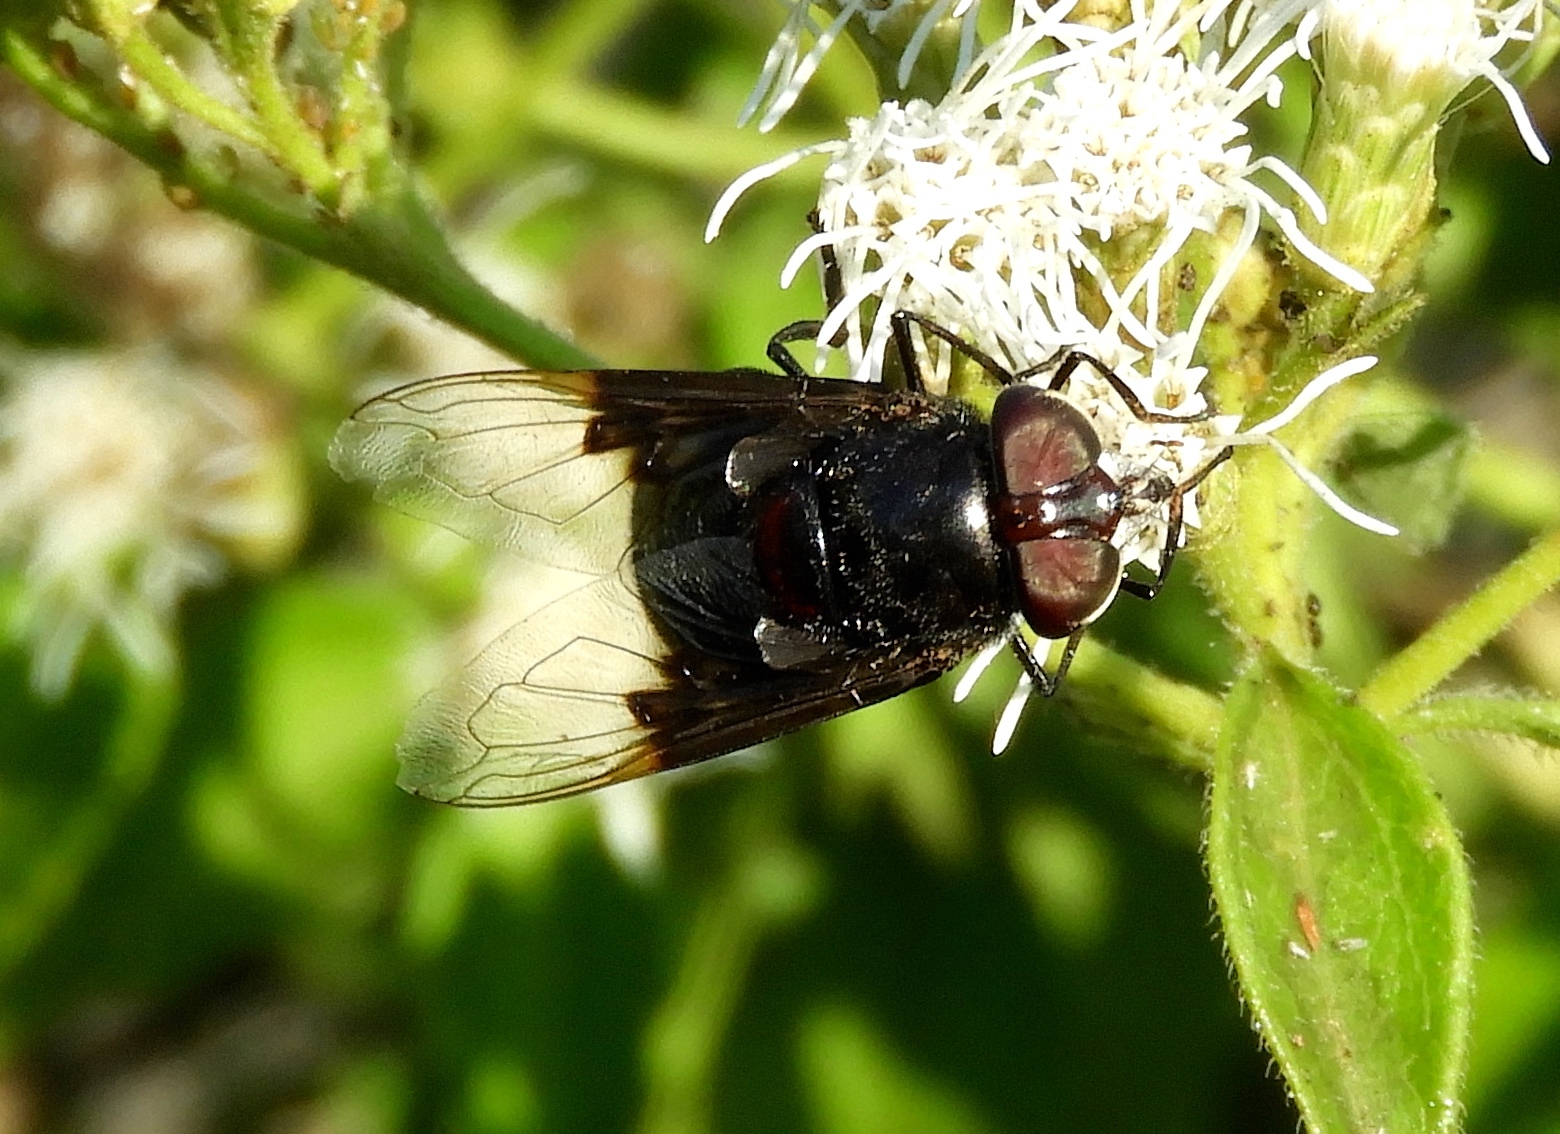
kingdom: Animalia
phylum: Arthropoda
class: Insecta
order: Diptera
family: Syrphidae
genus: Copestylum
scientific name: Copestylum mexicanum
